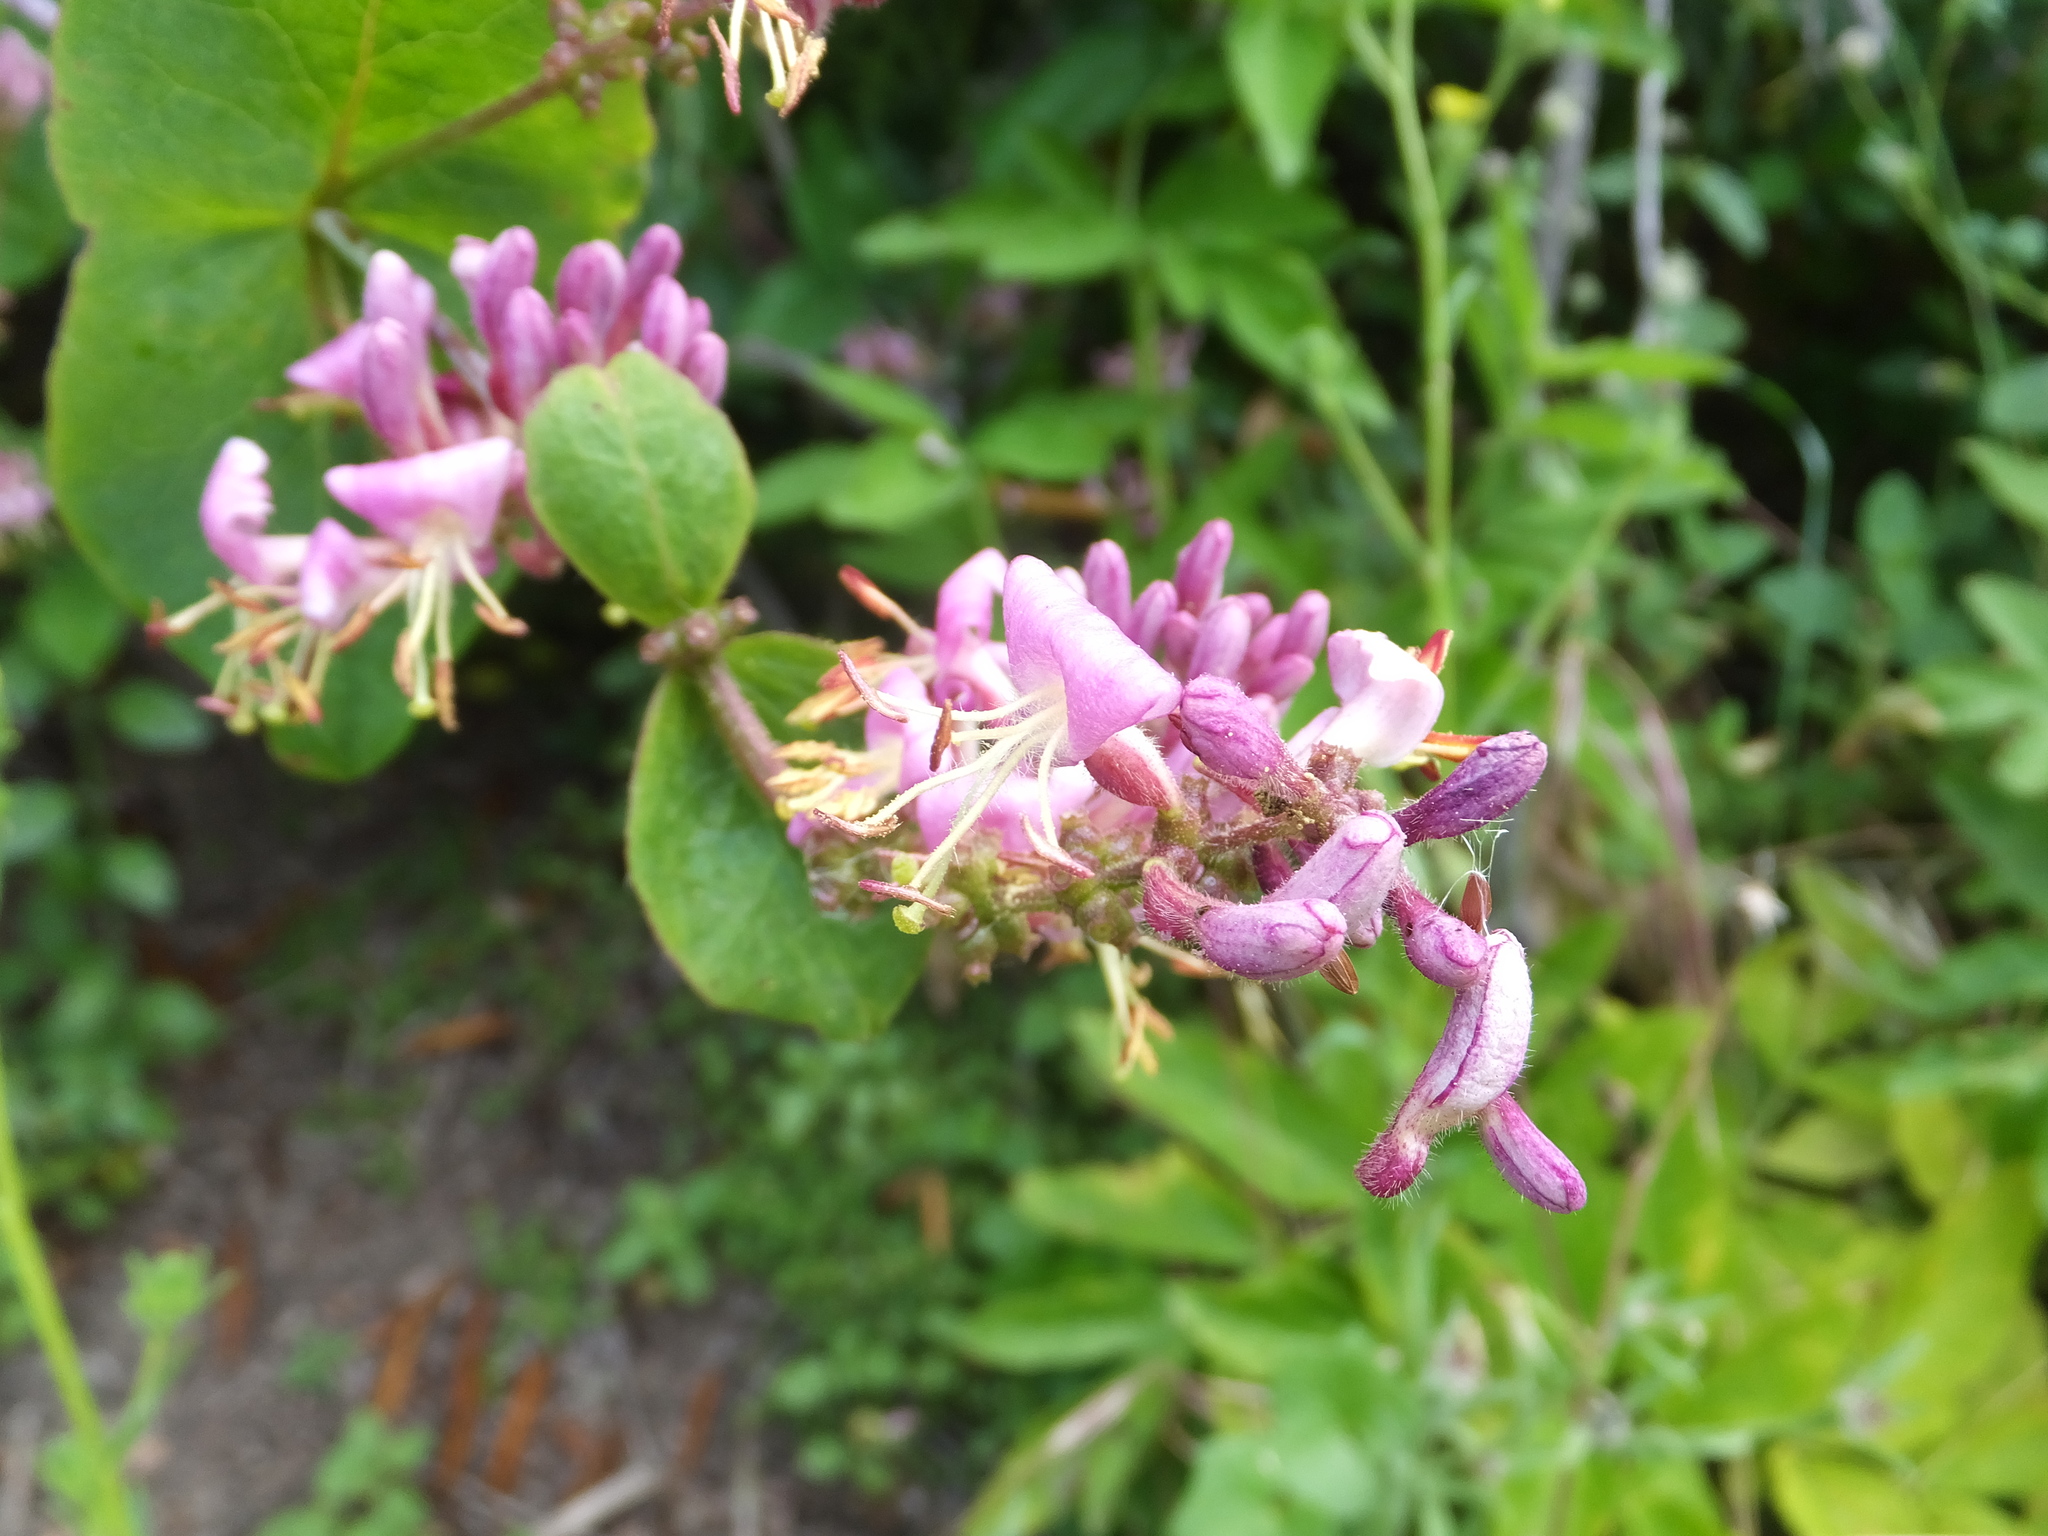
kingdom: Plantae
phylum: Tracheophyta
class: Magnoliopsida
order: Dipsacales
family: Caprifoliaceae
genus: Lonicera
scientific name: Lonicera hispidula
